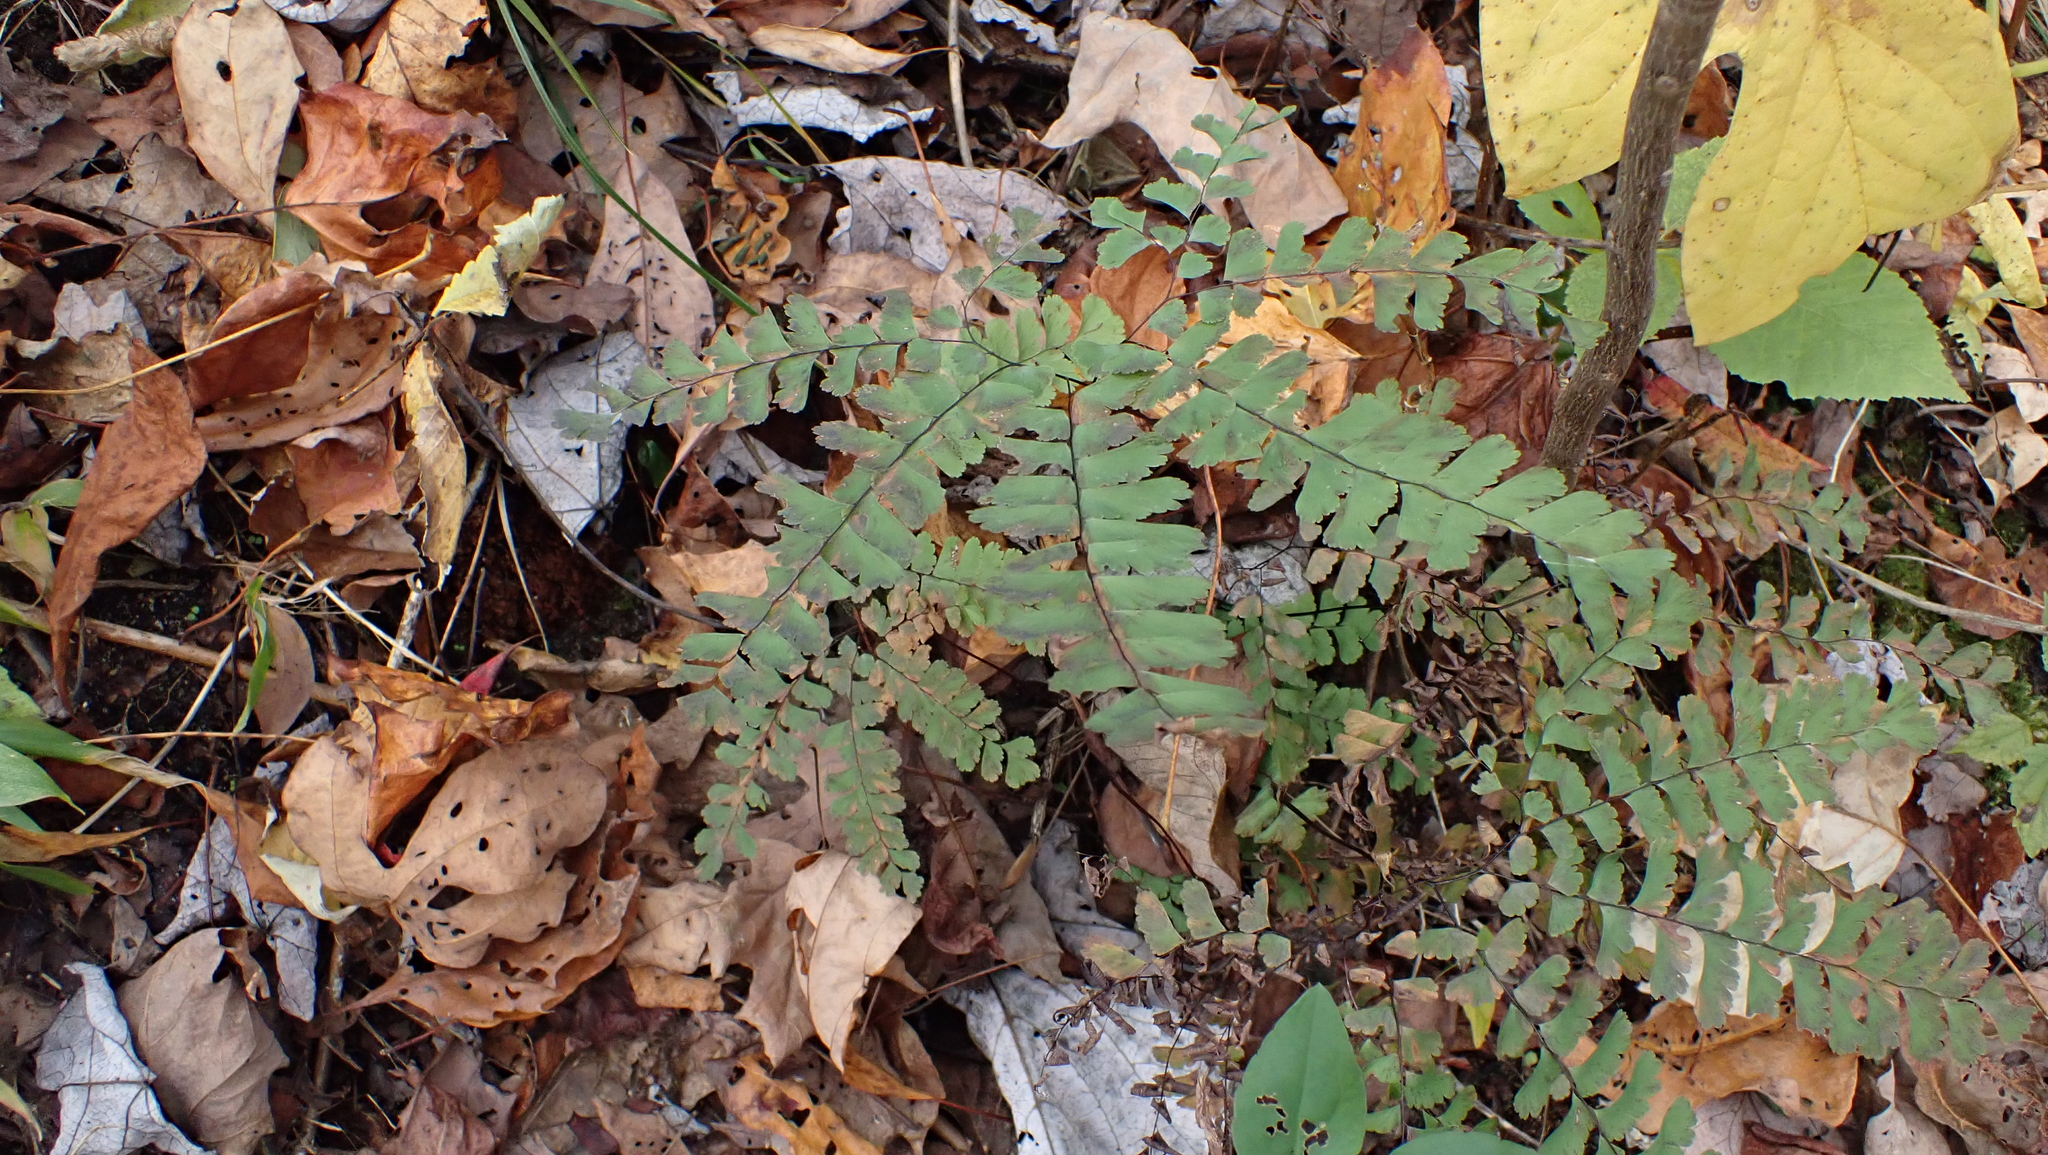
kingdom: Plantae
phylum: Tracheophyta
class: Polypodiopsida
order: Polypodiales
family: Pteridaceae
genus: Adiantum
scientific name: Adiantum pedatum
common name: Five-finger fern
